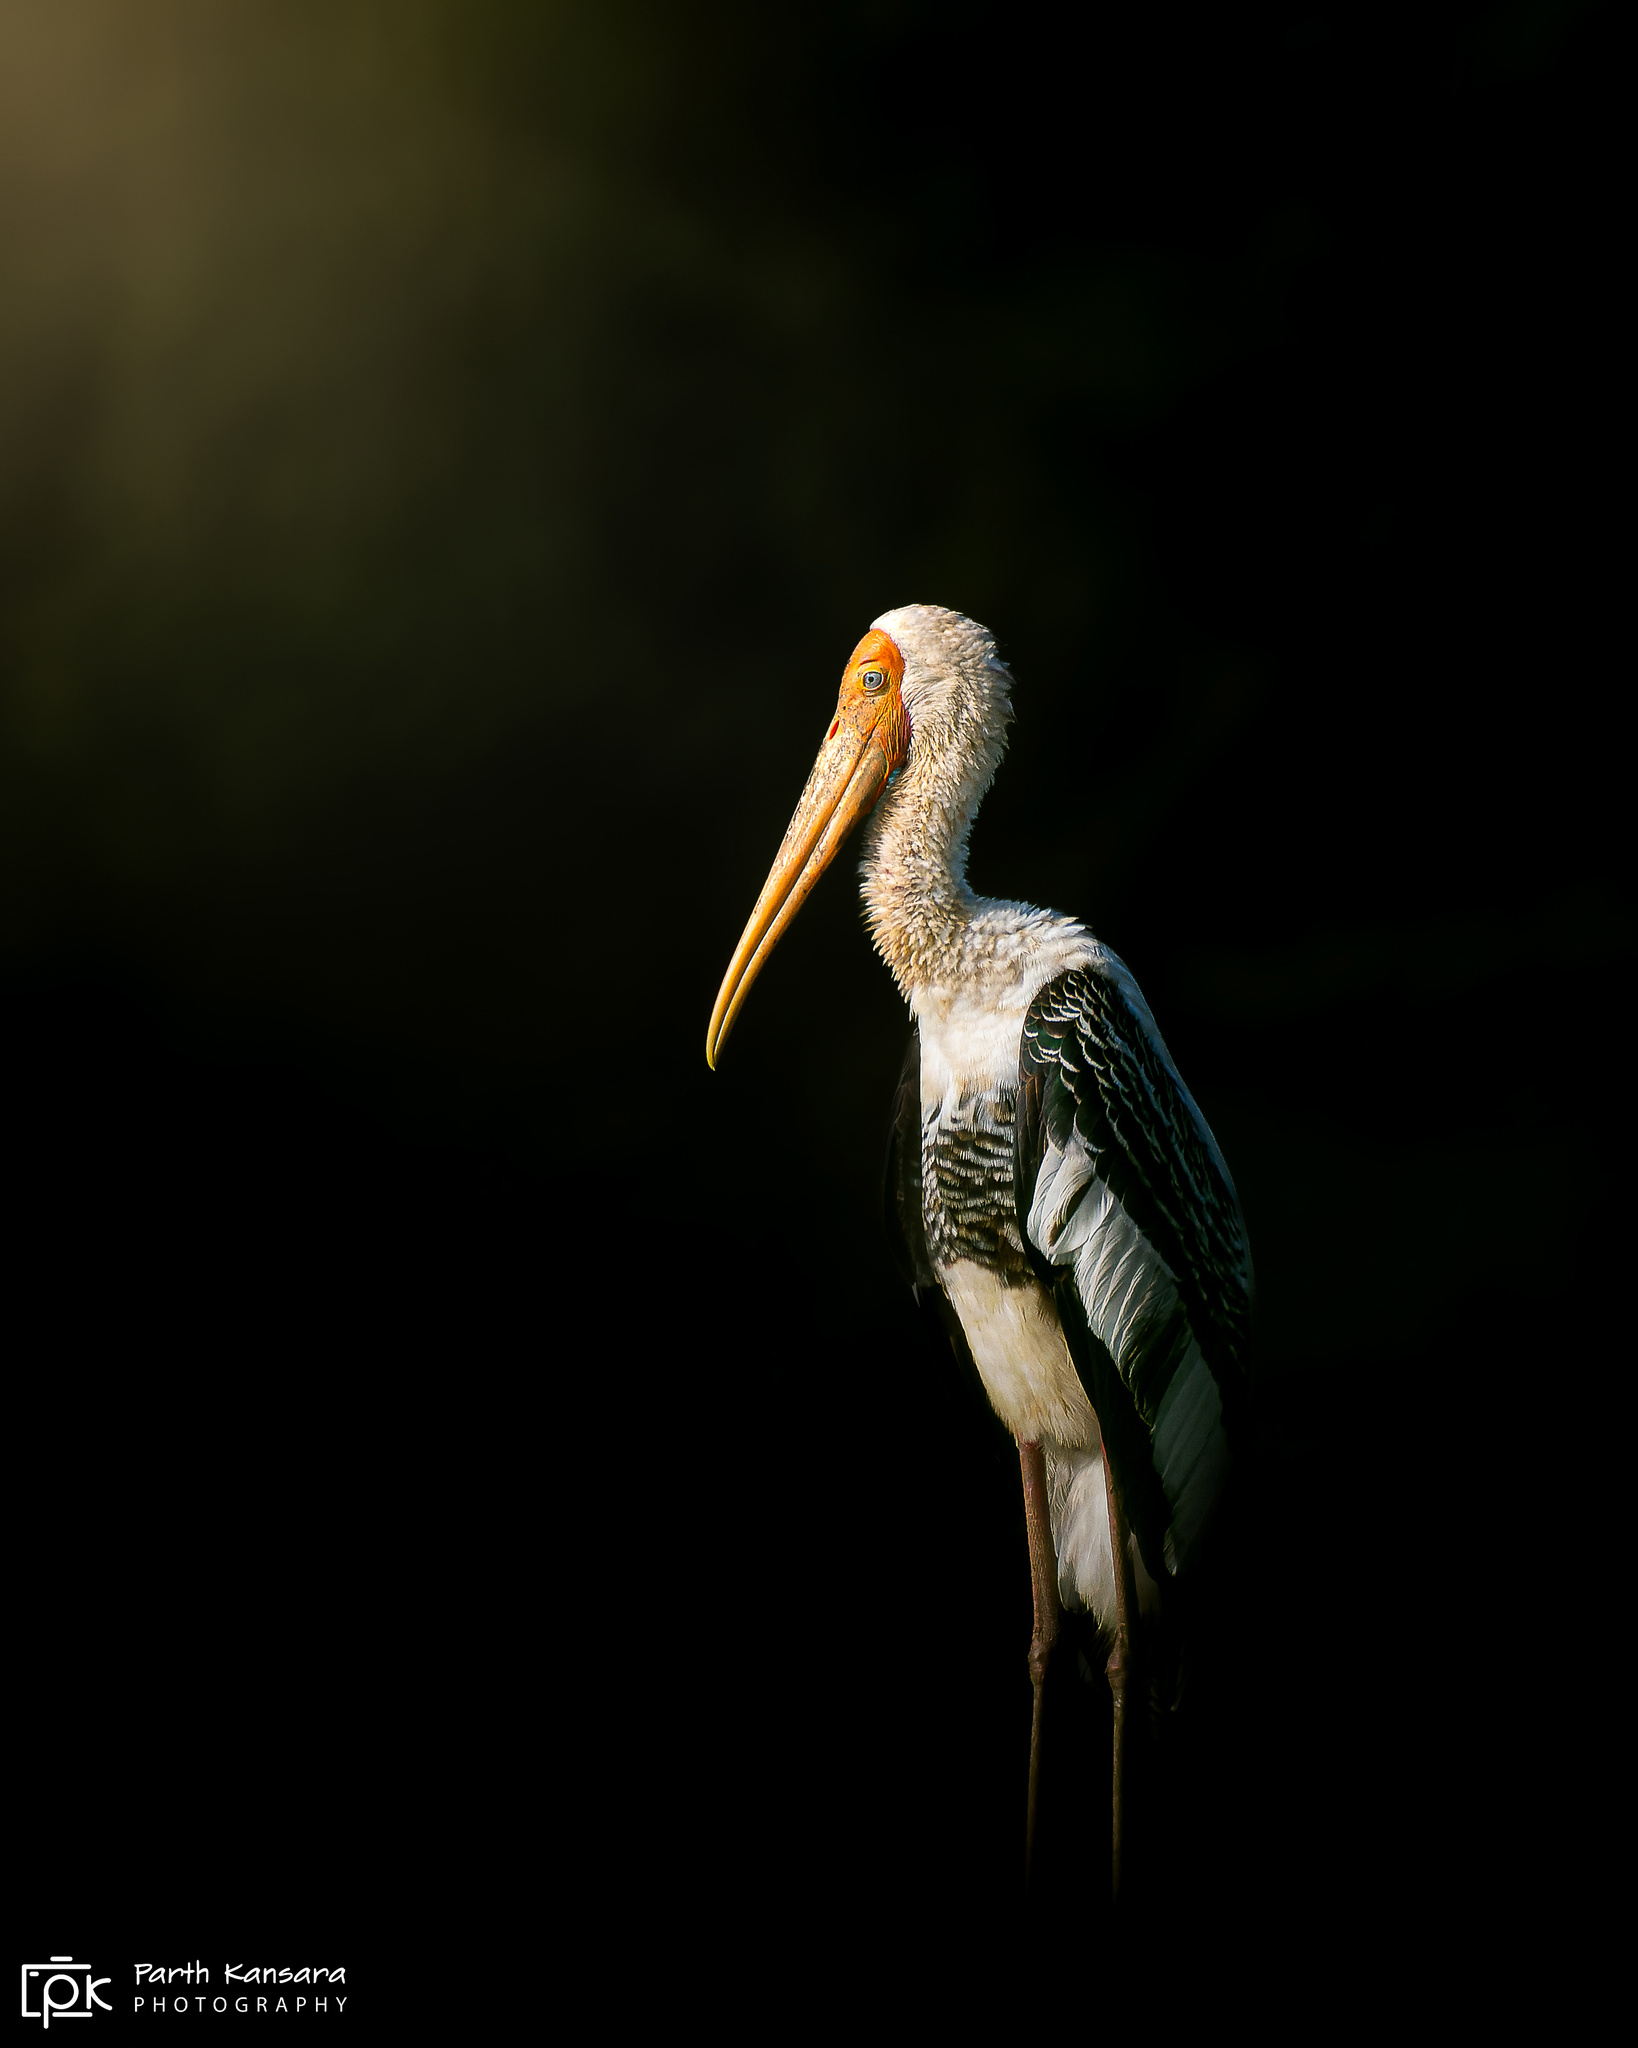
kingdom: Animalia
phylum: Chordata
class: Aves
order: Ciconiiformes
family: Ciconiidae
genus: Mycteria
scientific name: Mycteria leucocephala
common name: Painted stork
